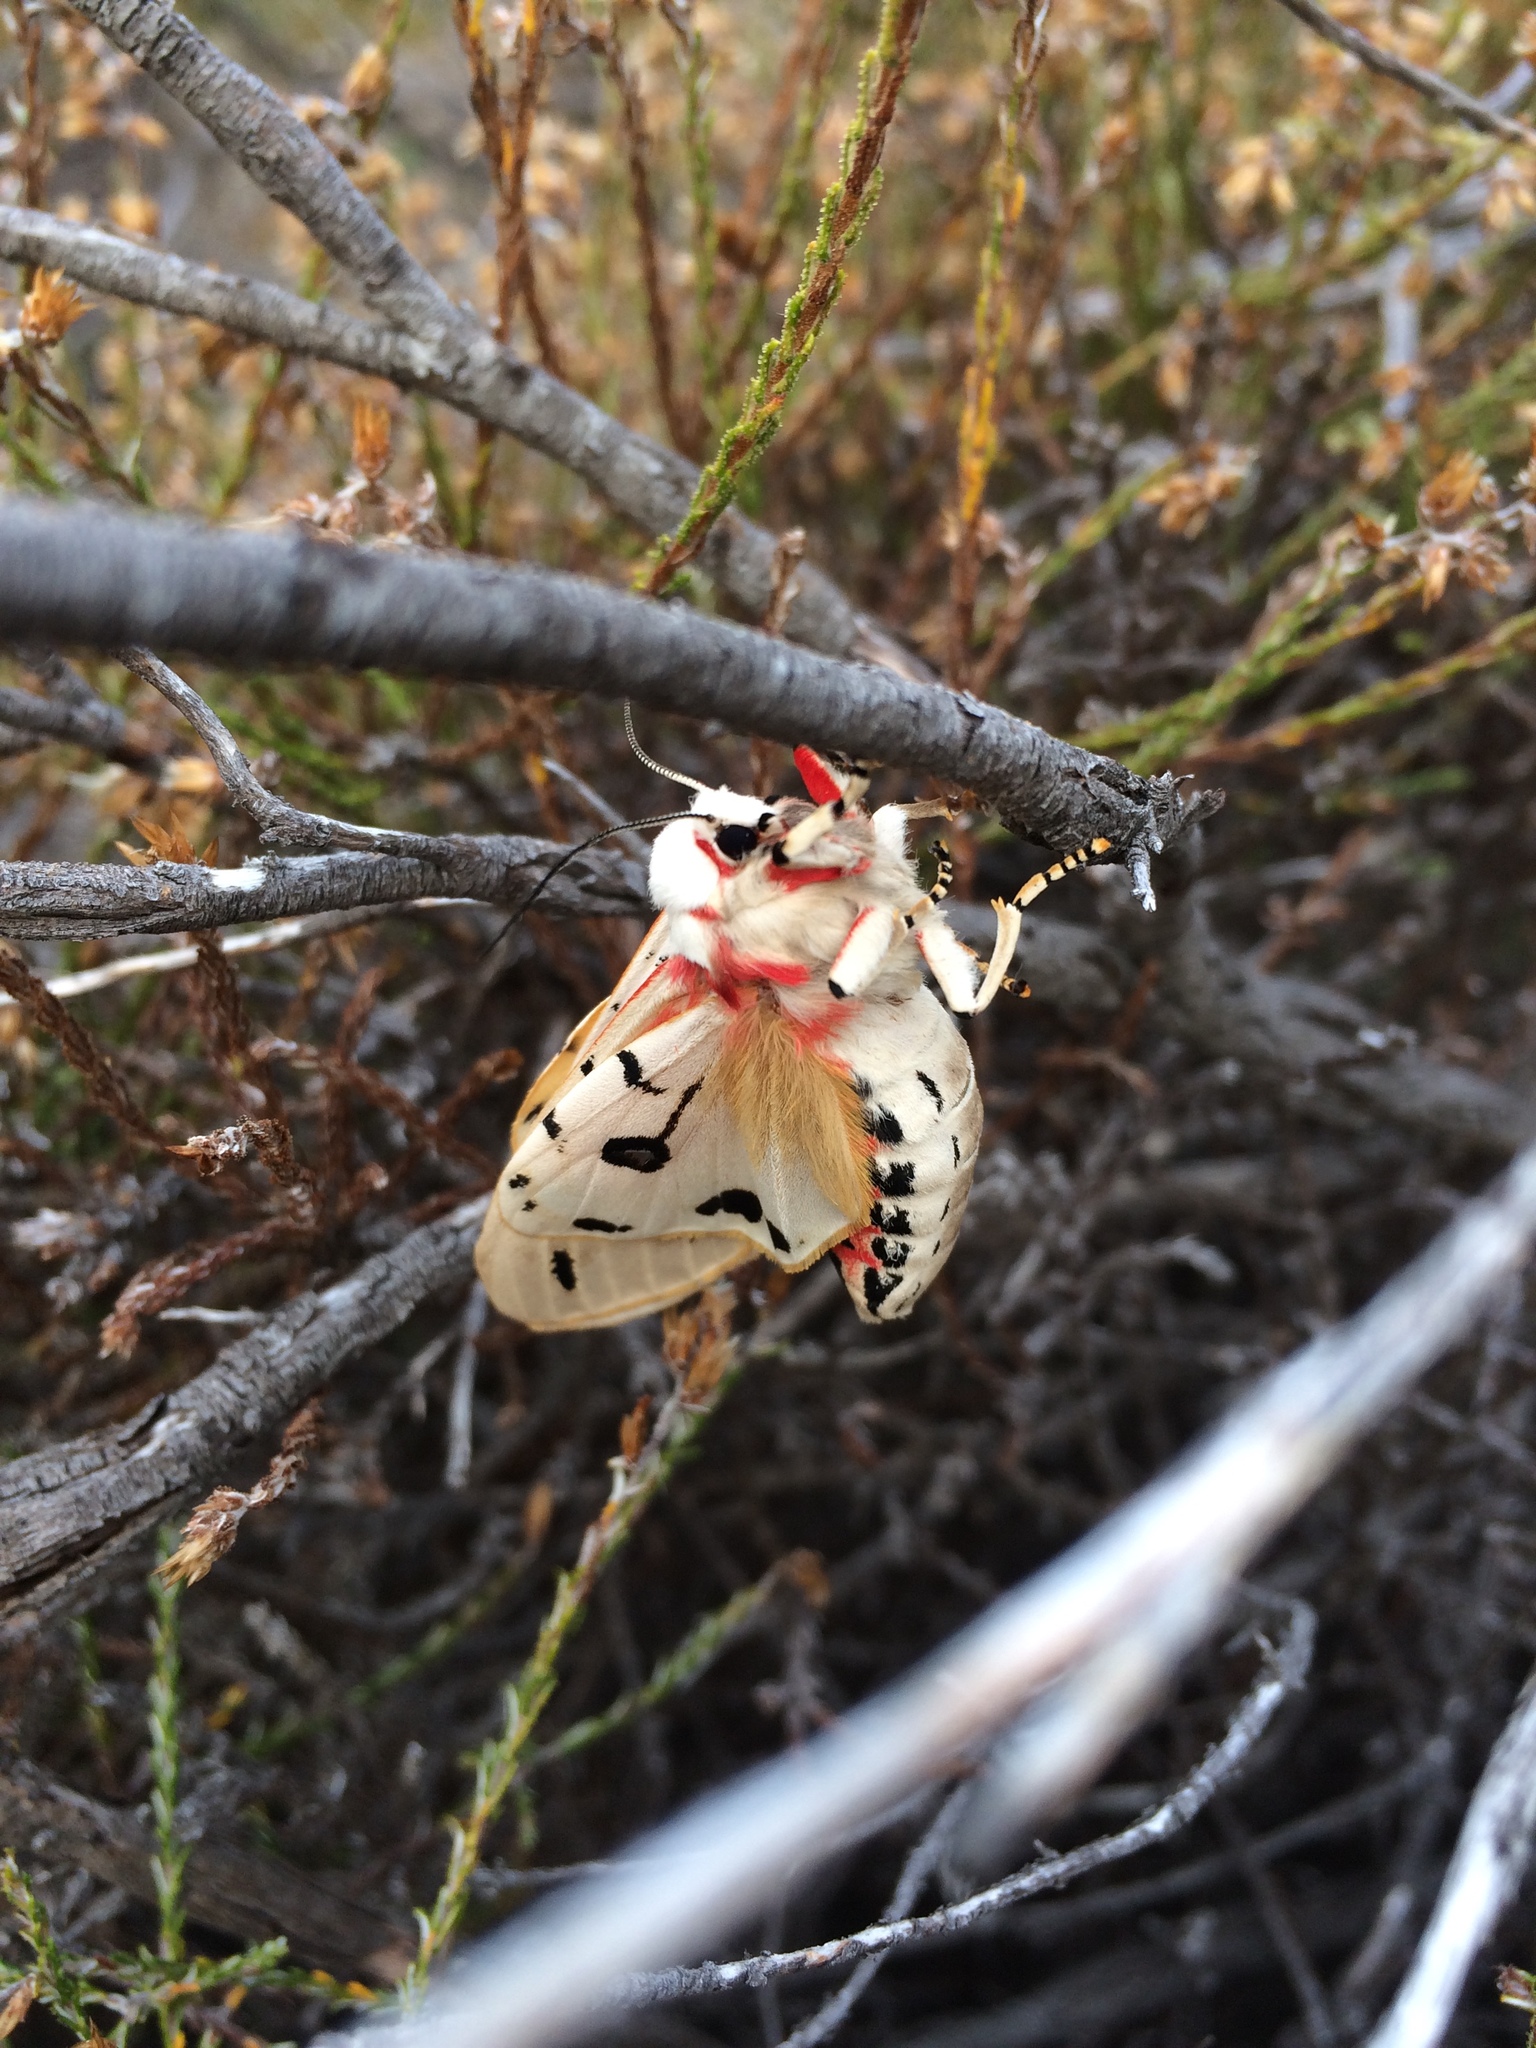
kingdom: Animalia
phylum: Arthropoda
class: Insecta
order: Lepidoptera
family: Erebidae
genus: Rhodogastria
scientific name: Rhodogastria amasis
